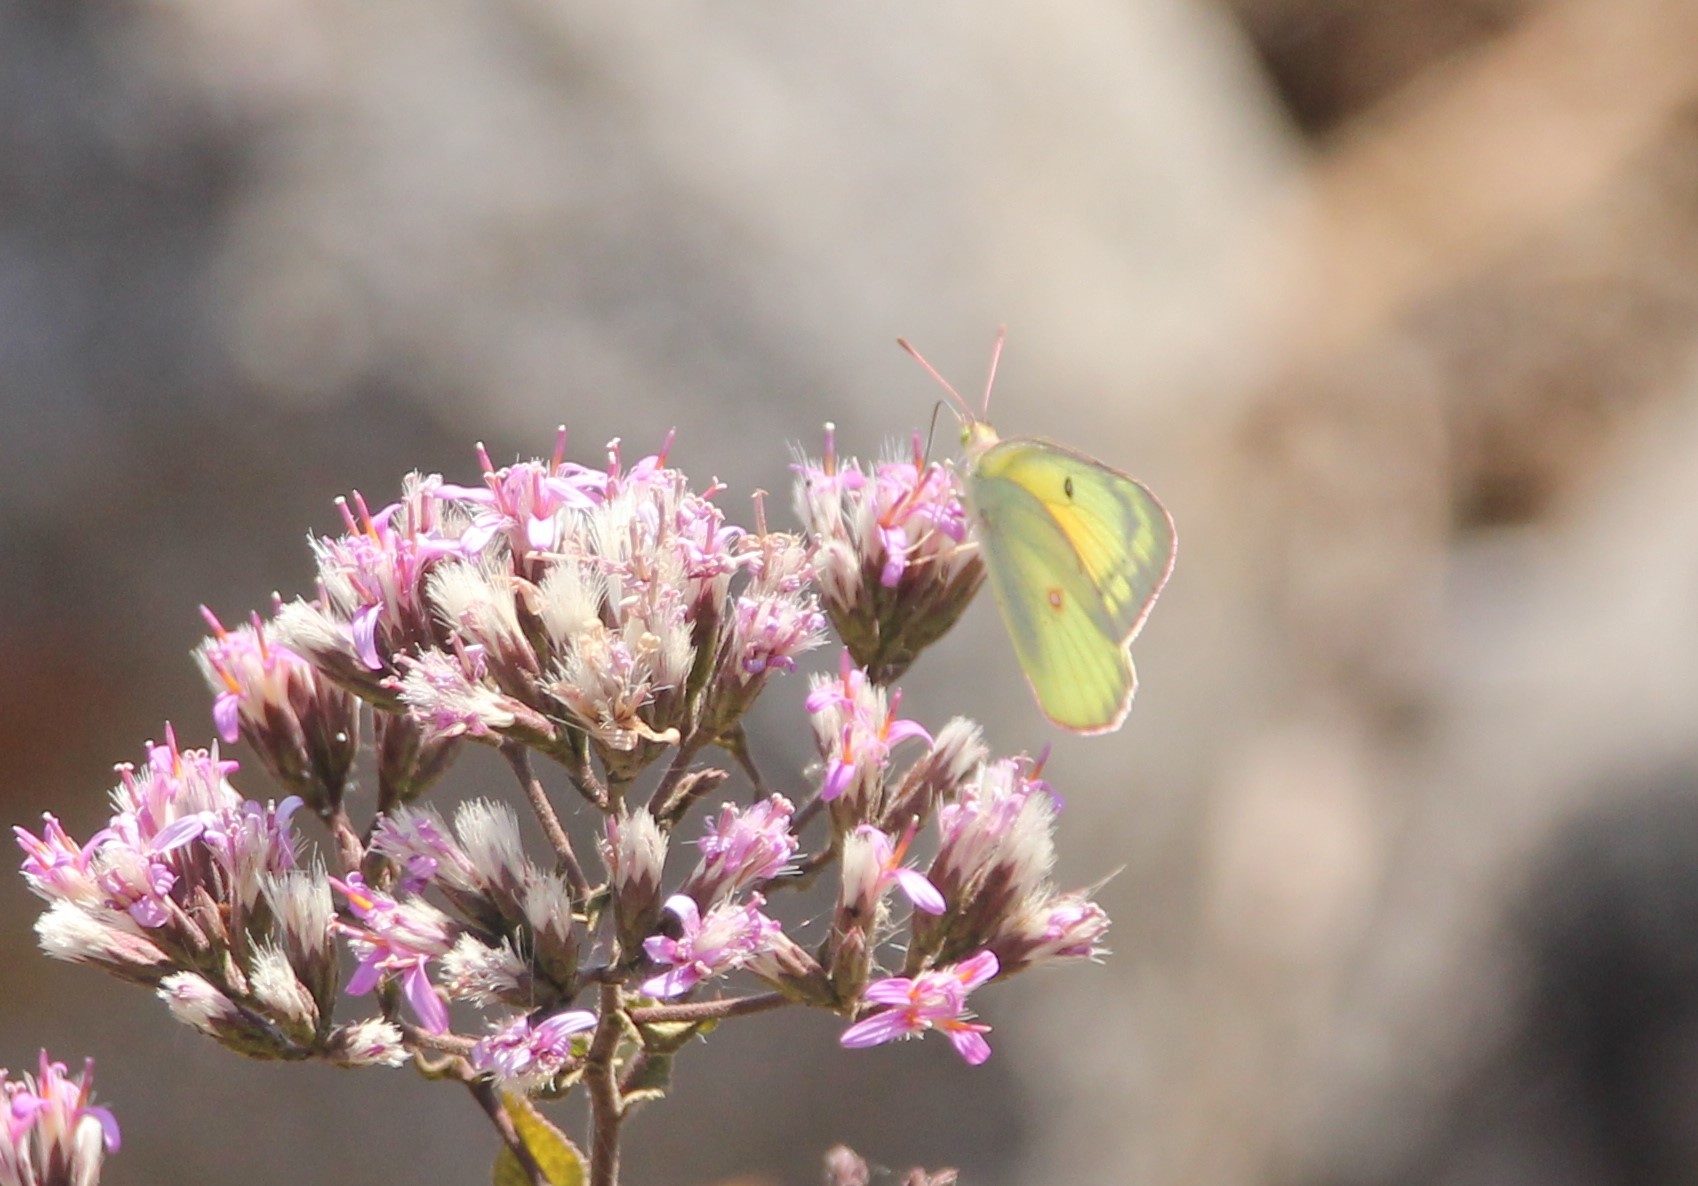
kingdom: Animalia
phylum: Arthropoda
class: Insecta
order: Lepidoptera
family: Pieridae
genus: Colias
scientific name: Colias eurytheme
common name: Alfalfa butterfly
